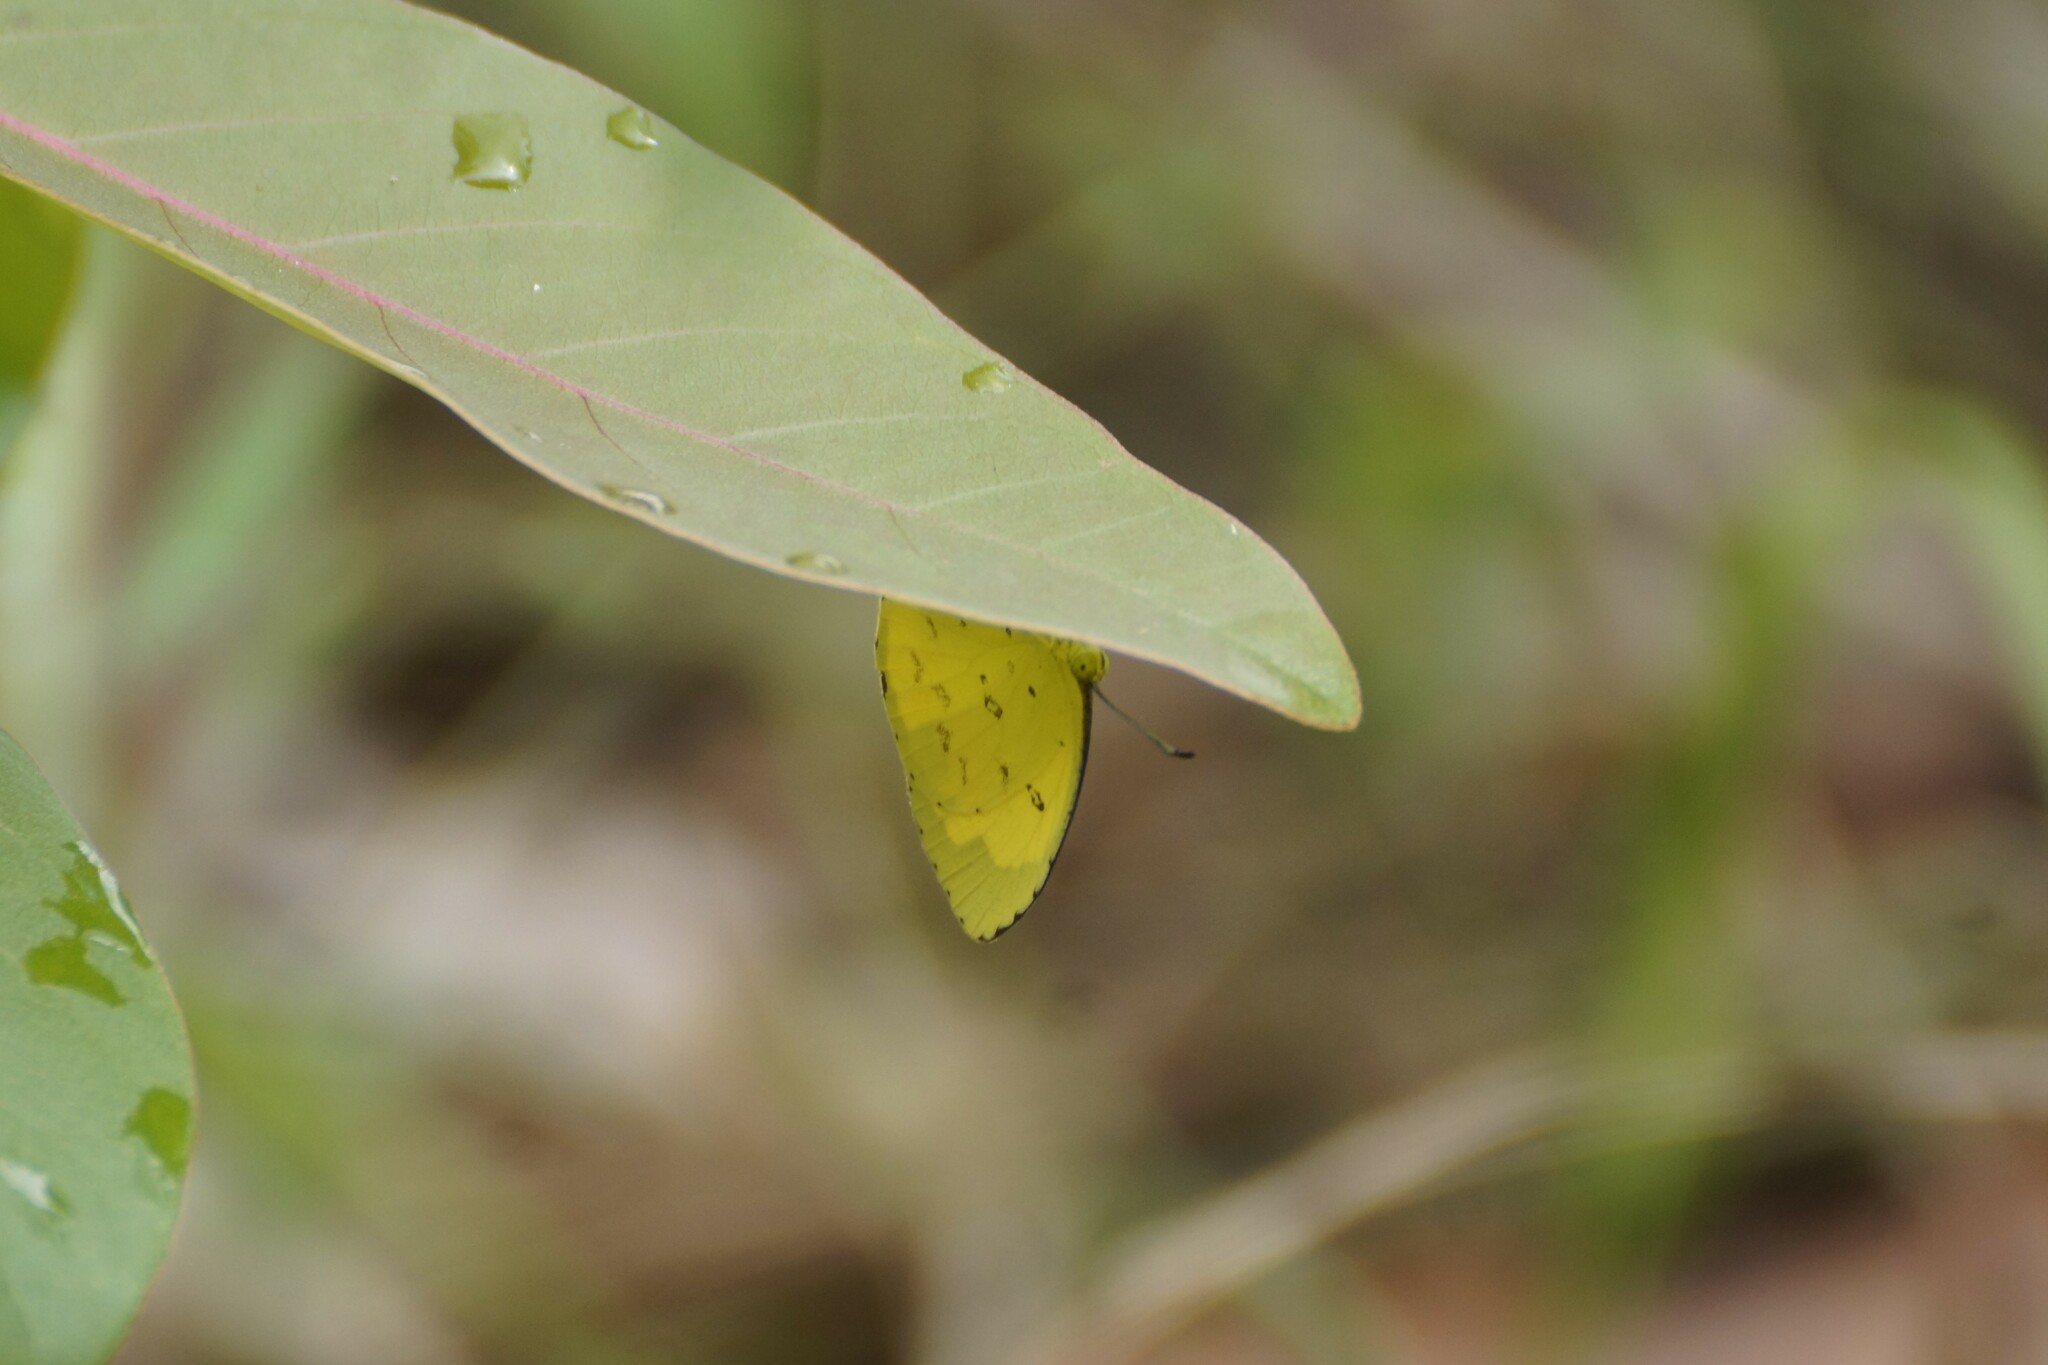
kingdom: Animalia
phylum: Arthropoda
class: Insecta
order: Lepidoptera
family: Pieridae
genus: Eurema
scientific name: Eurema hecabe
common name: Pale grass yellow
